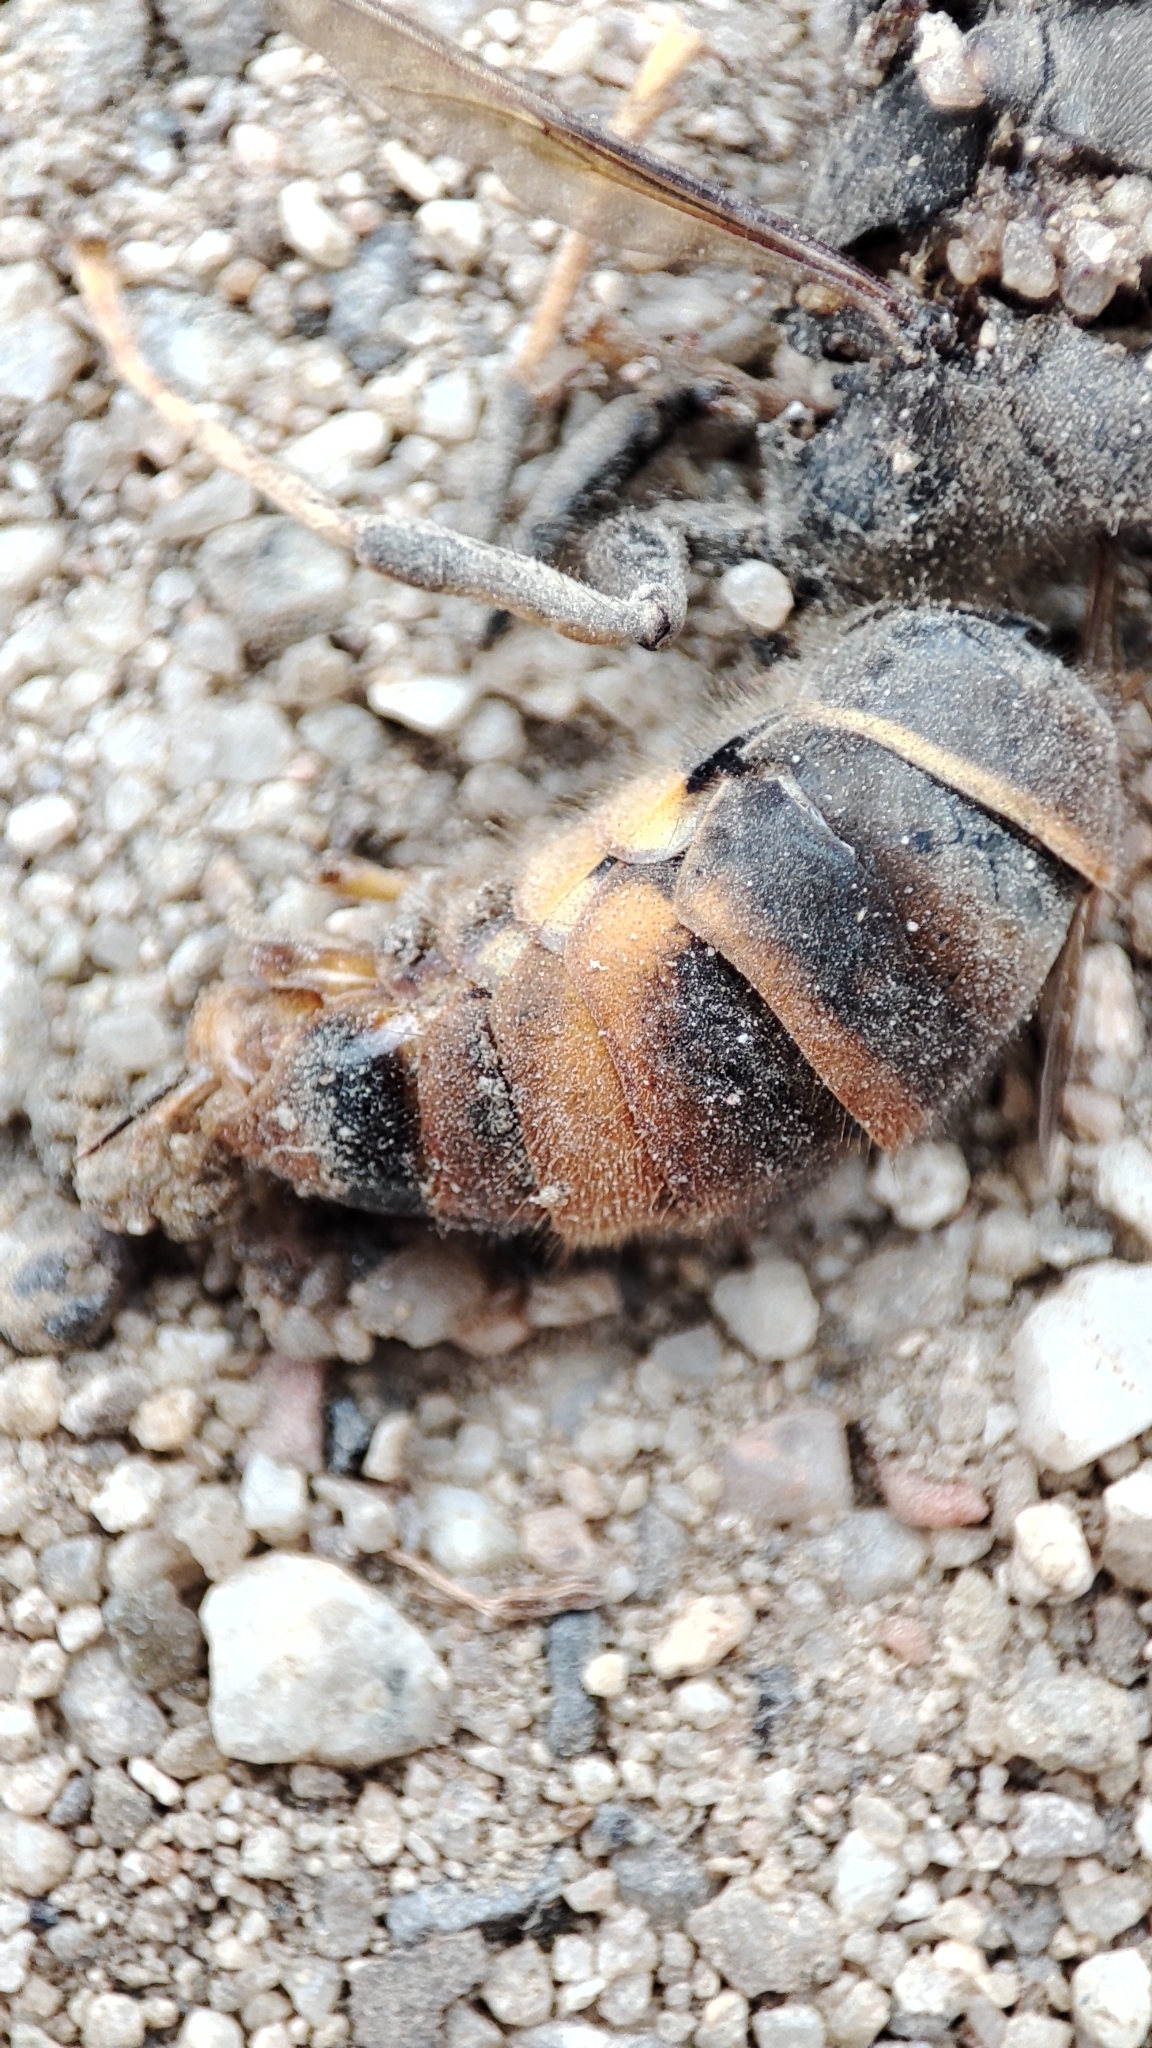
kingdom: Animalia
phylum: Arthropoda
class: Insecta
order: Hymenoptera
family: Vespidae
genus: Vespa
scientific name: Vespa velutina
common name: Asian hornet
